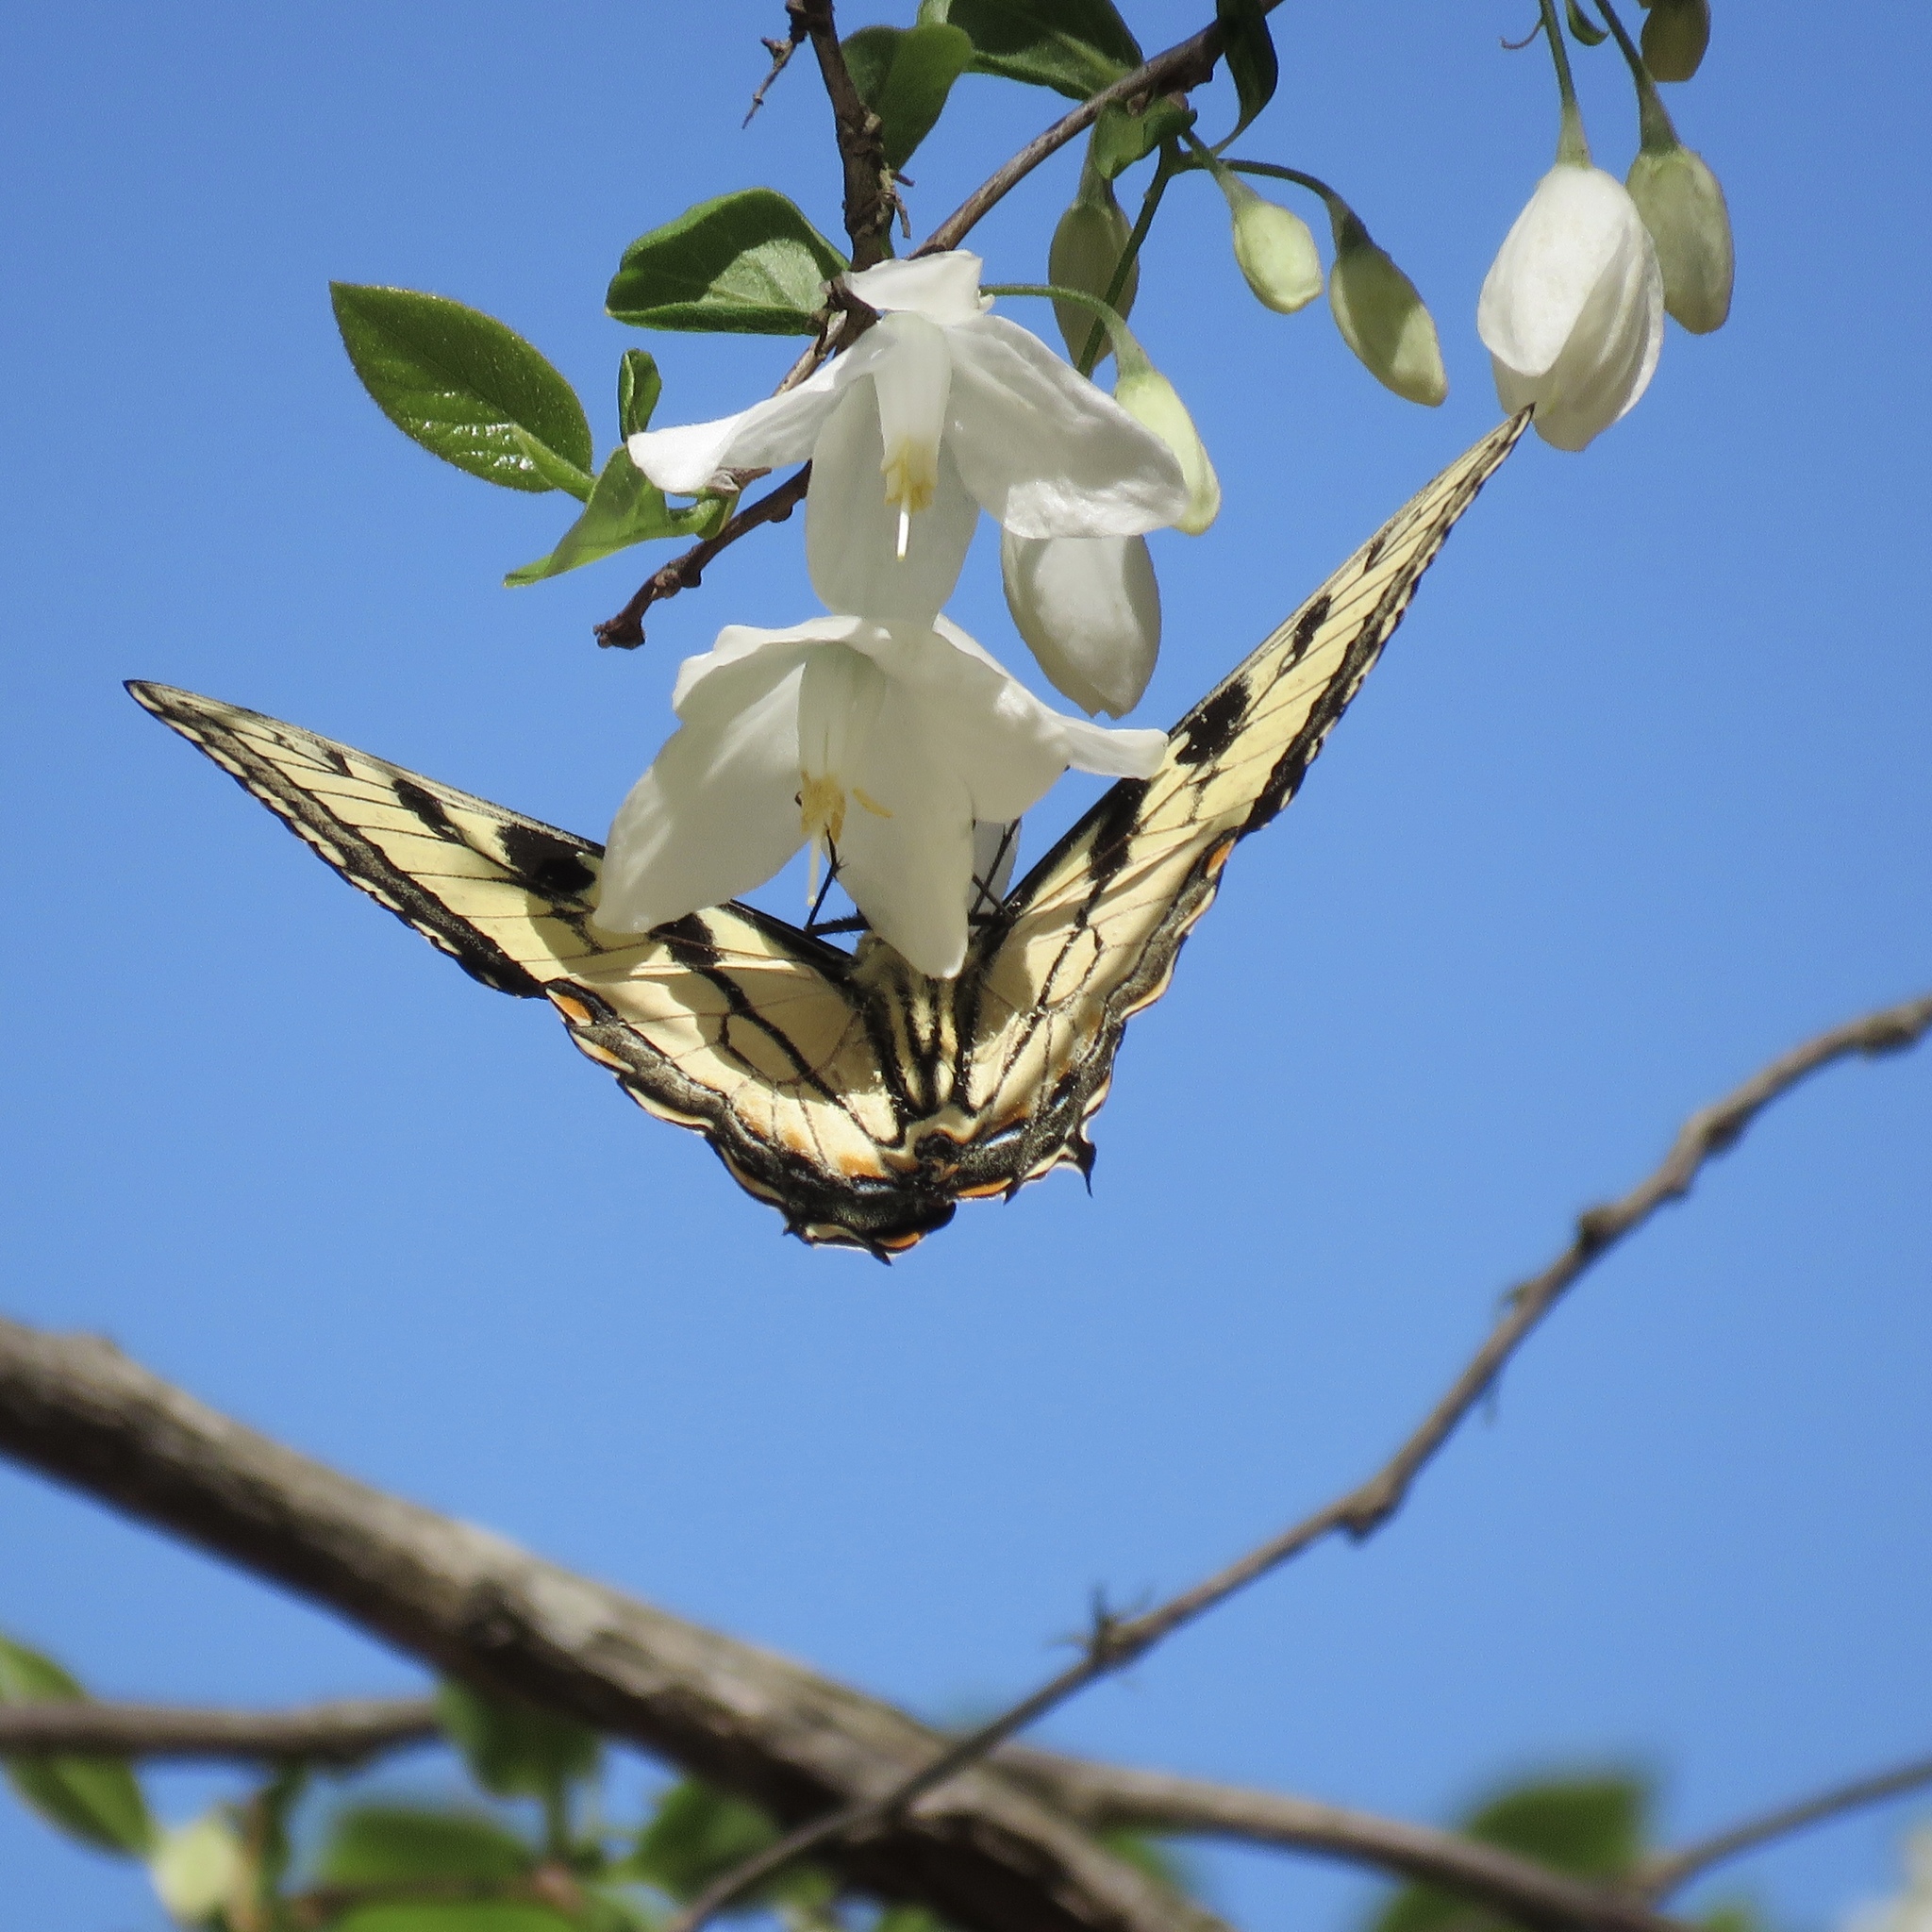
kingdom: Plantae
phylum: Tracheophyta
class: Magnoliopsida
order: Ericales
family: Styracaceae
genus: Halesia
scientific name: Halesia diptera
